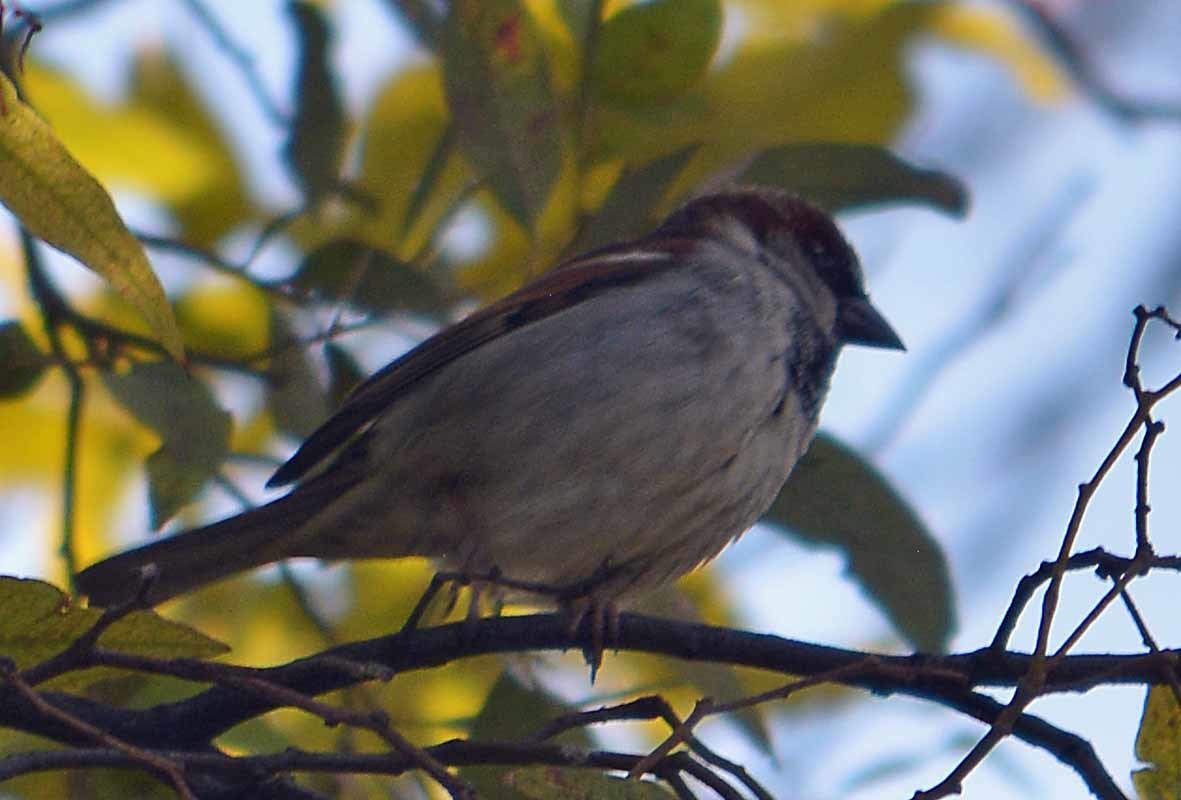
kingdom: Animalia
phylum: Chordata
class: Aves
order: Passeriformes
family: Passeridae
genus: Passer
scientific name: Passer domesticus
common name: House sparrow
